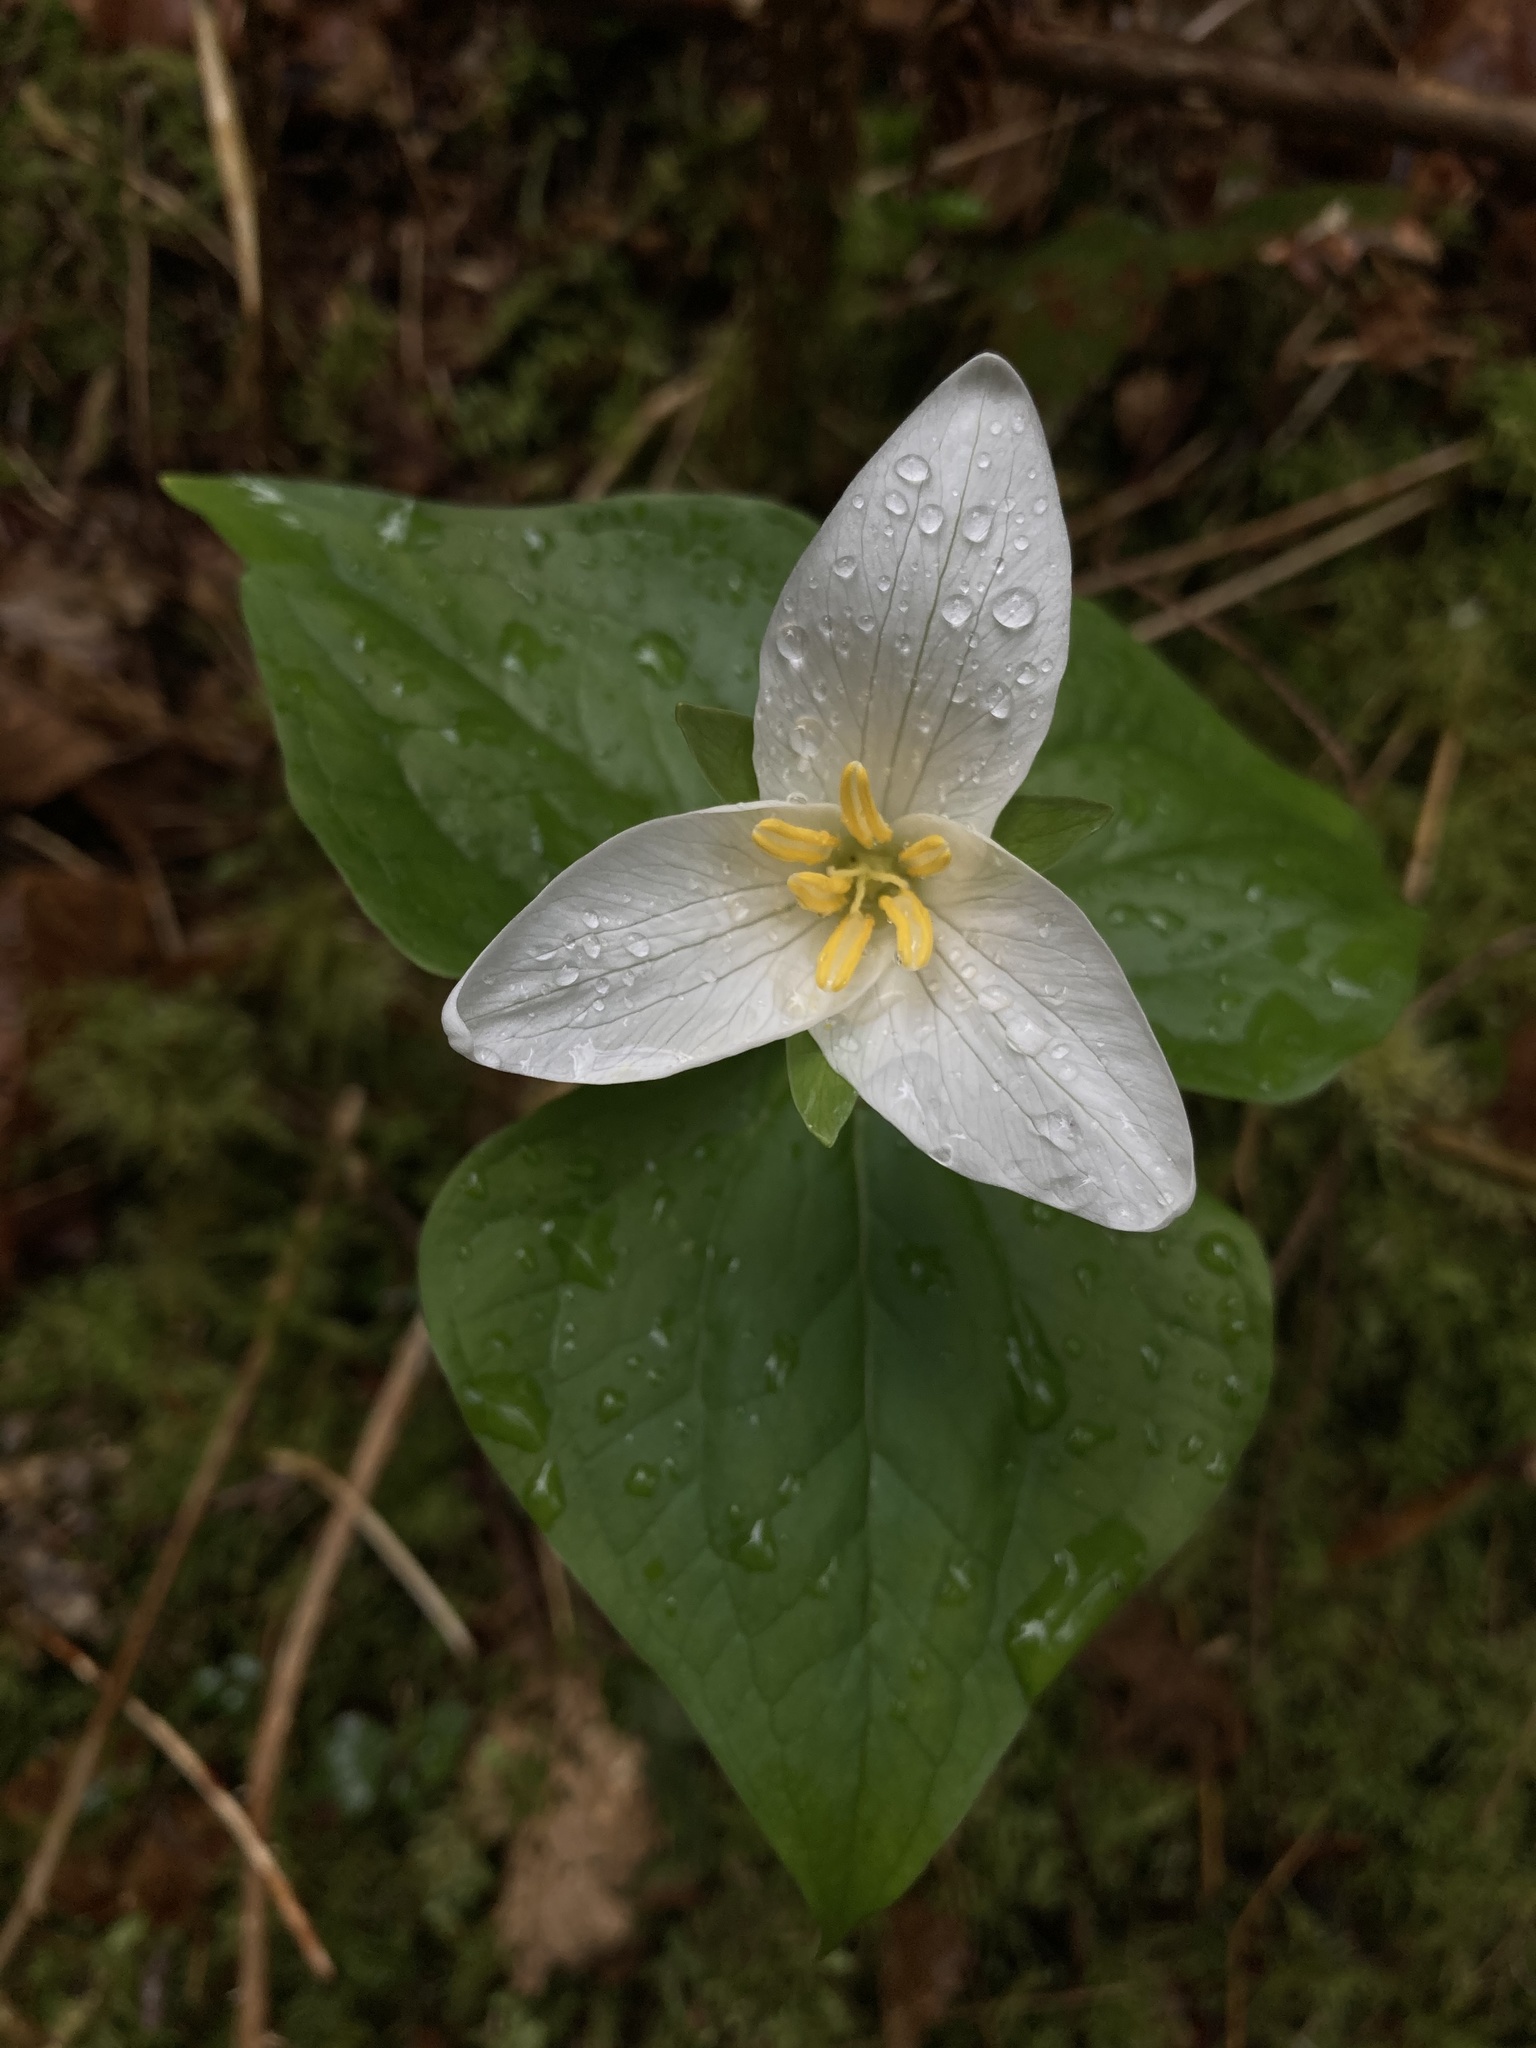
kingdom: Plantae
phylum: Tracheophyta
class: Liliopsida
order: Liliales
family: Melanthiaceae
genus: Trillium
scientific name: Trillium ovatum
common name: Pacific trillium
